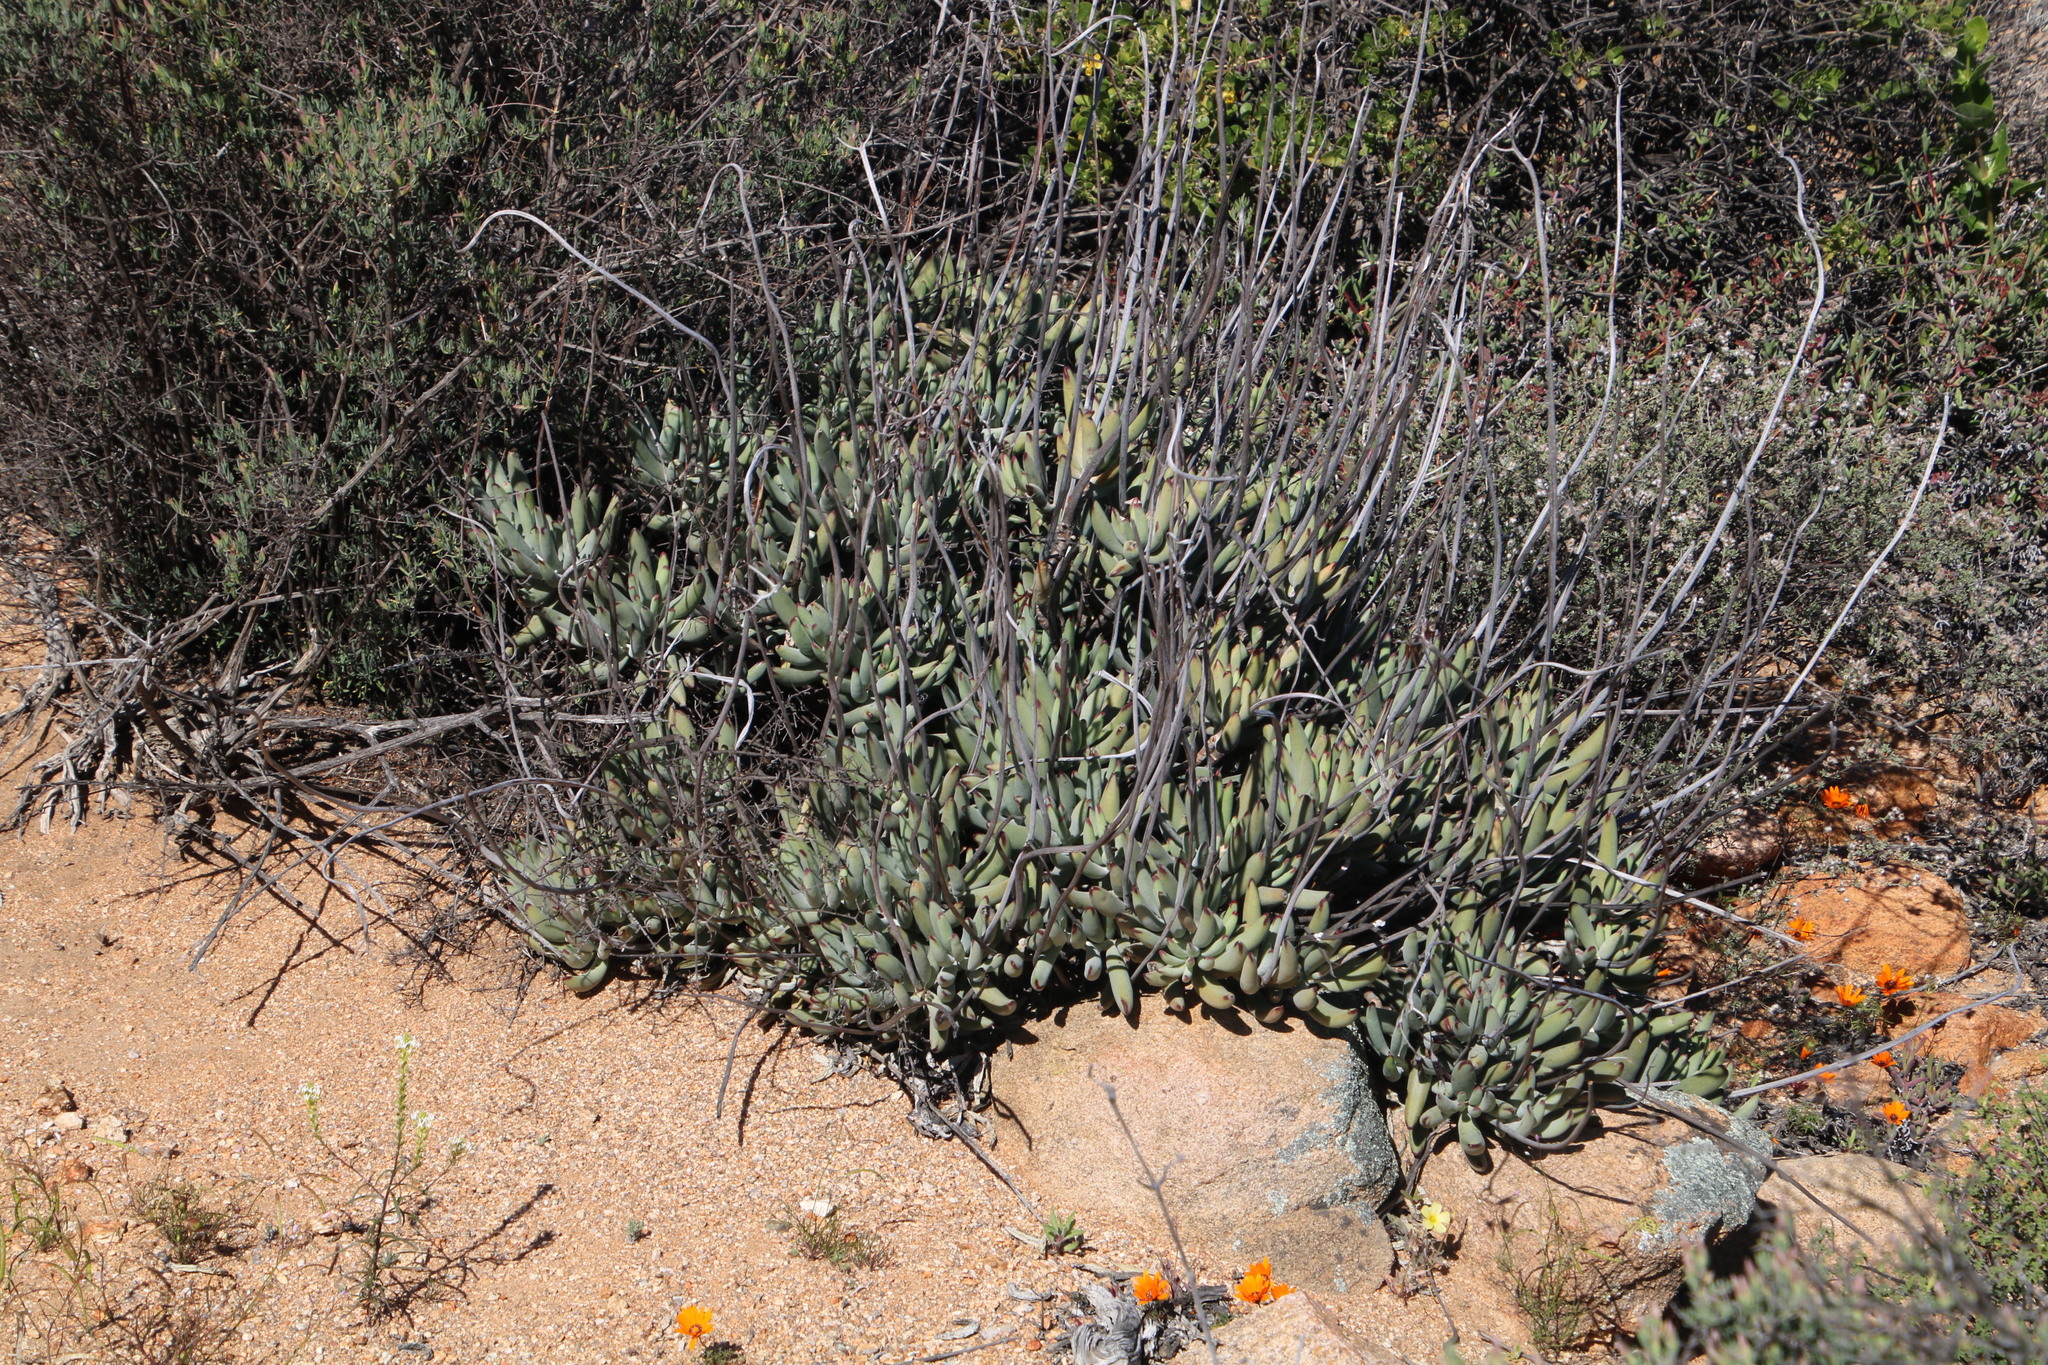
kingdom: Plantae
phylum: Tracheophyta
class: Magnoliopsida
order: Saxifragales
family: Crassulaceae
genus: Cotyledon
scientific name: Cotyledon orbiculata
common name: Pig's ear
